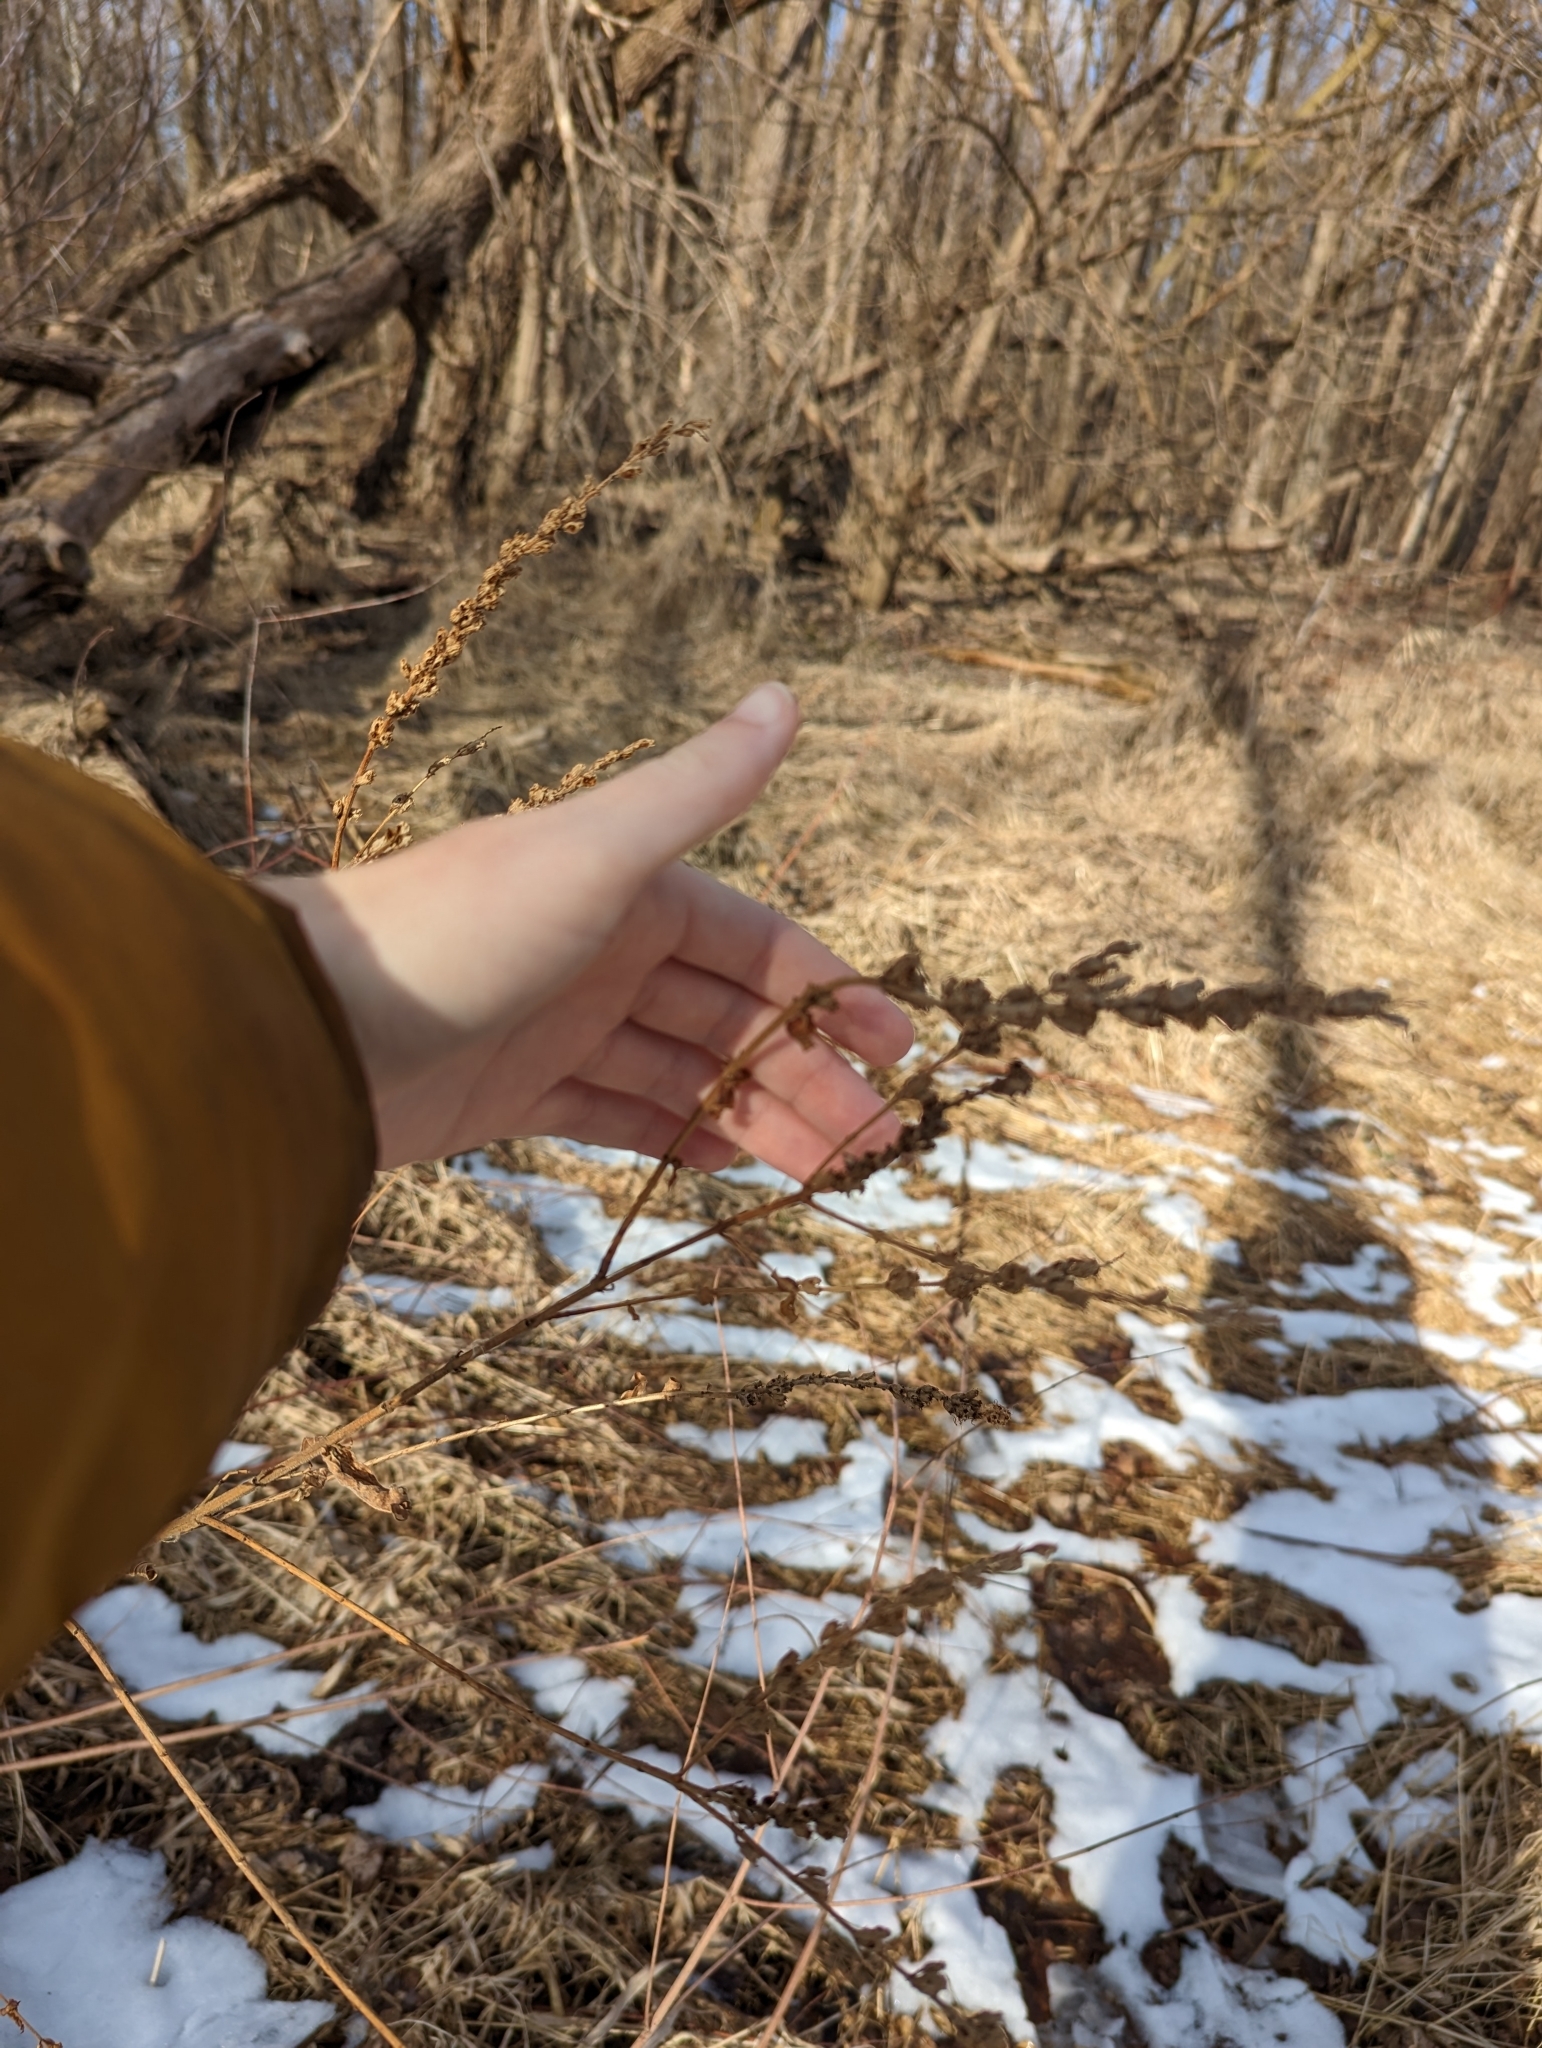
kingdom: Plantae
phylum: Tracheophyta
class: Magnoliopsida
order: Myrtales
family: Lythraceae
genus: Lythrum
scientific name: Lythrum salicaria
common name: Purple loosestrife
